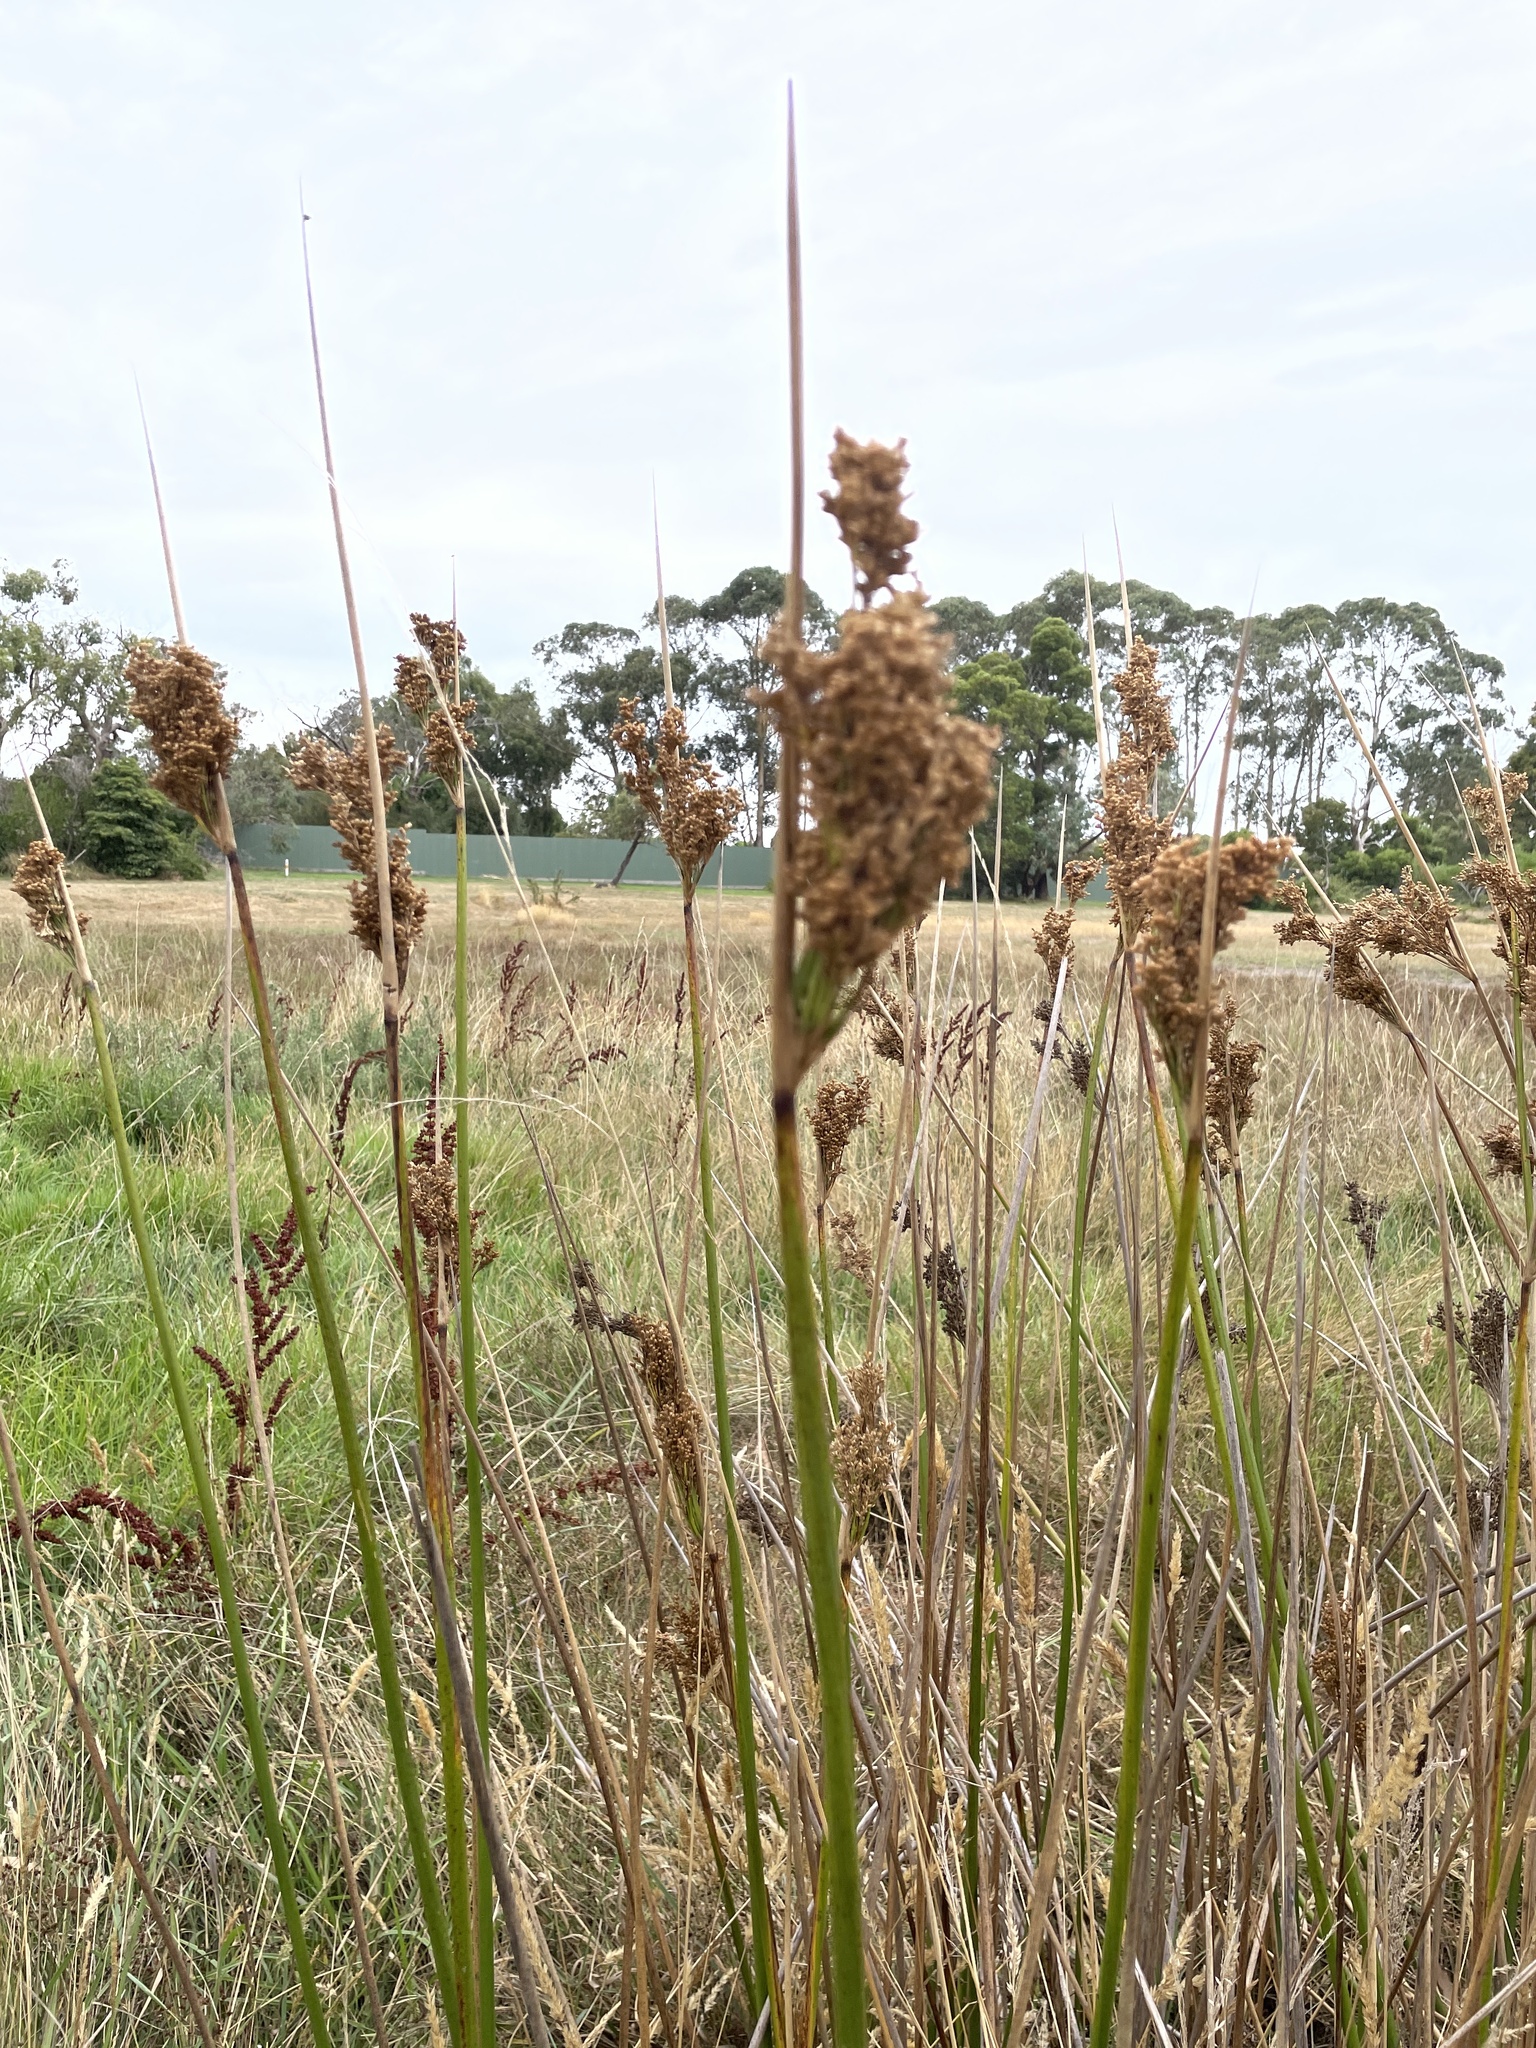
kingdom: Plantae
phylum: Tracheophyta
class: Liliopsida
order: Poales
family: Juncaceae
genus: Juncus
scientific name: Juncus pallidus
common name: Great soft-rush
